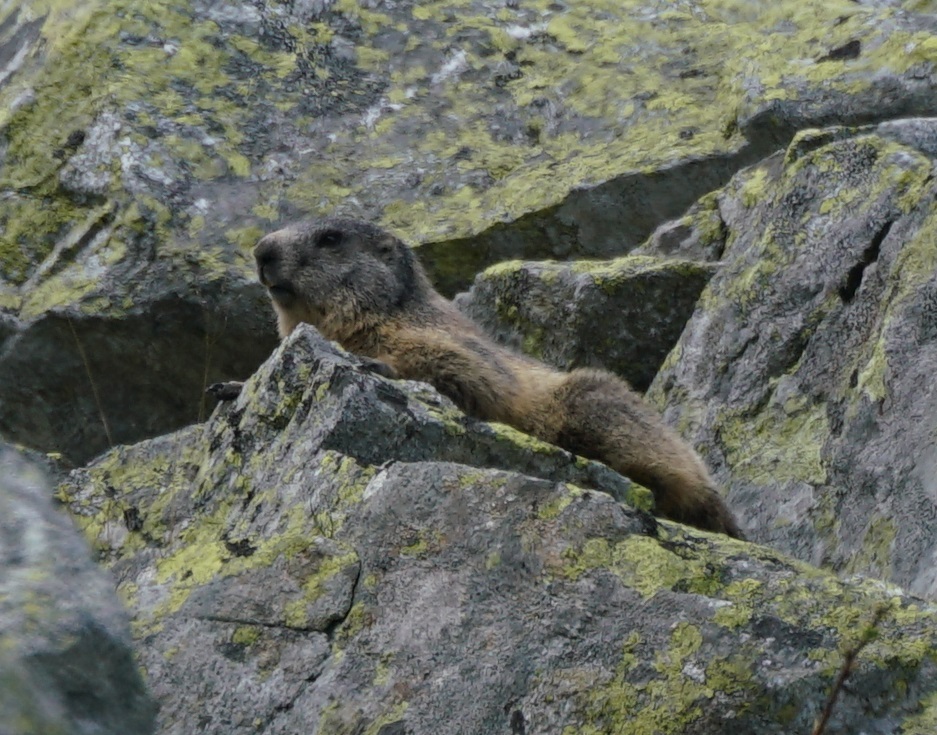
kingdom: Animalia
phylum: Chordata
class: Mammalia
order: Rodentia
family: Sciuridae
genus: Marmota
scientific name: Marmota marmota
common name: Alpine marmot
